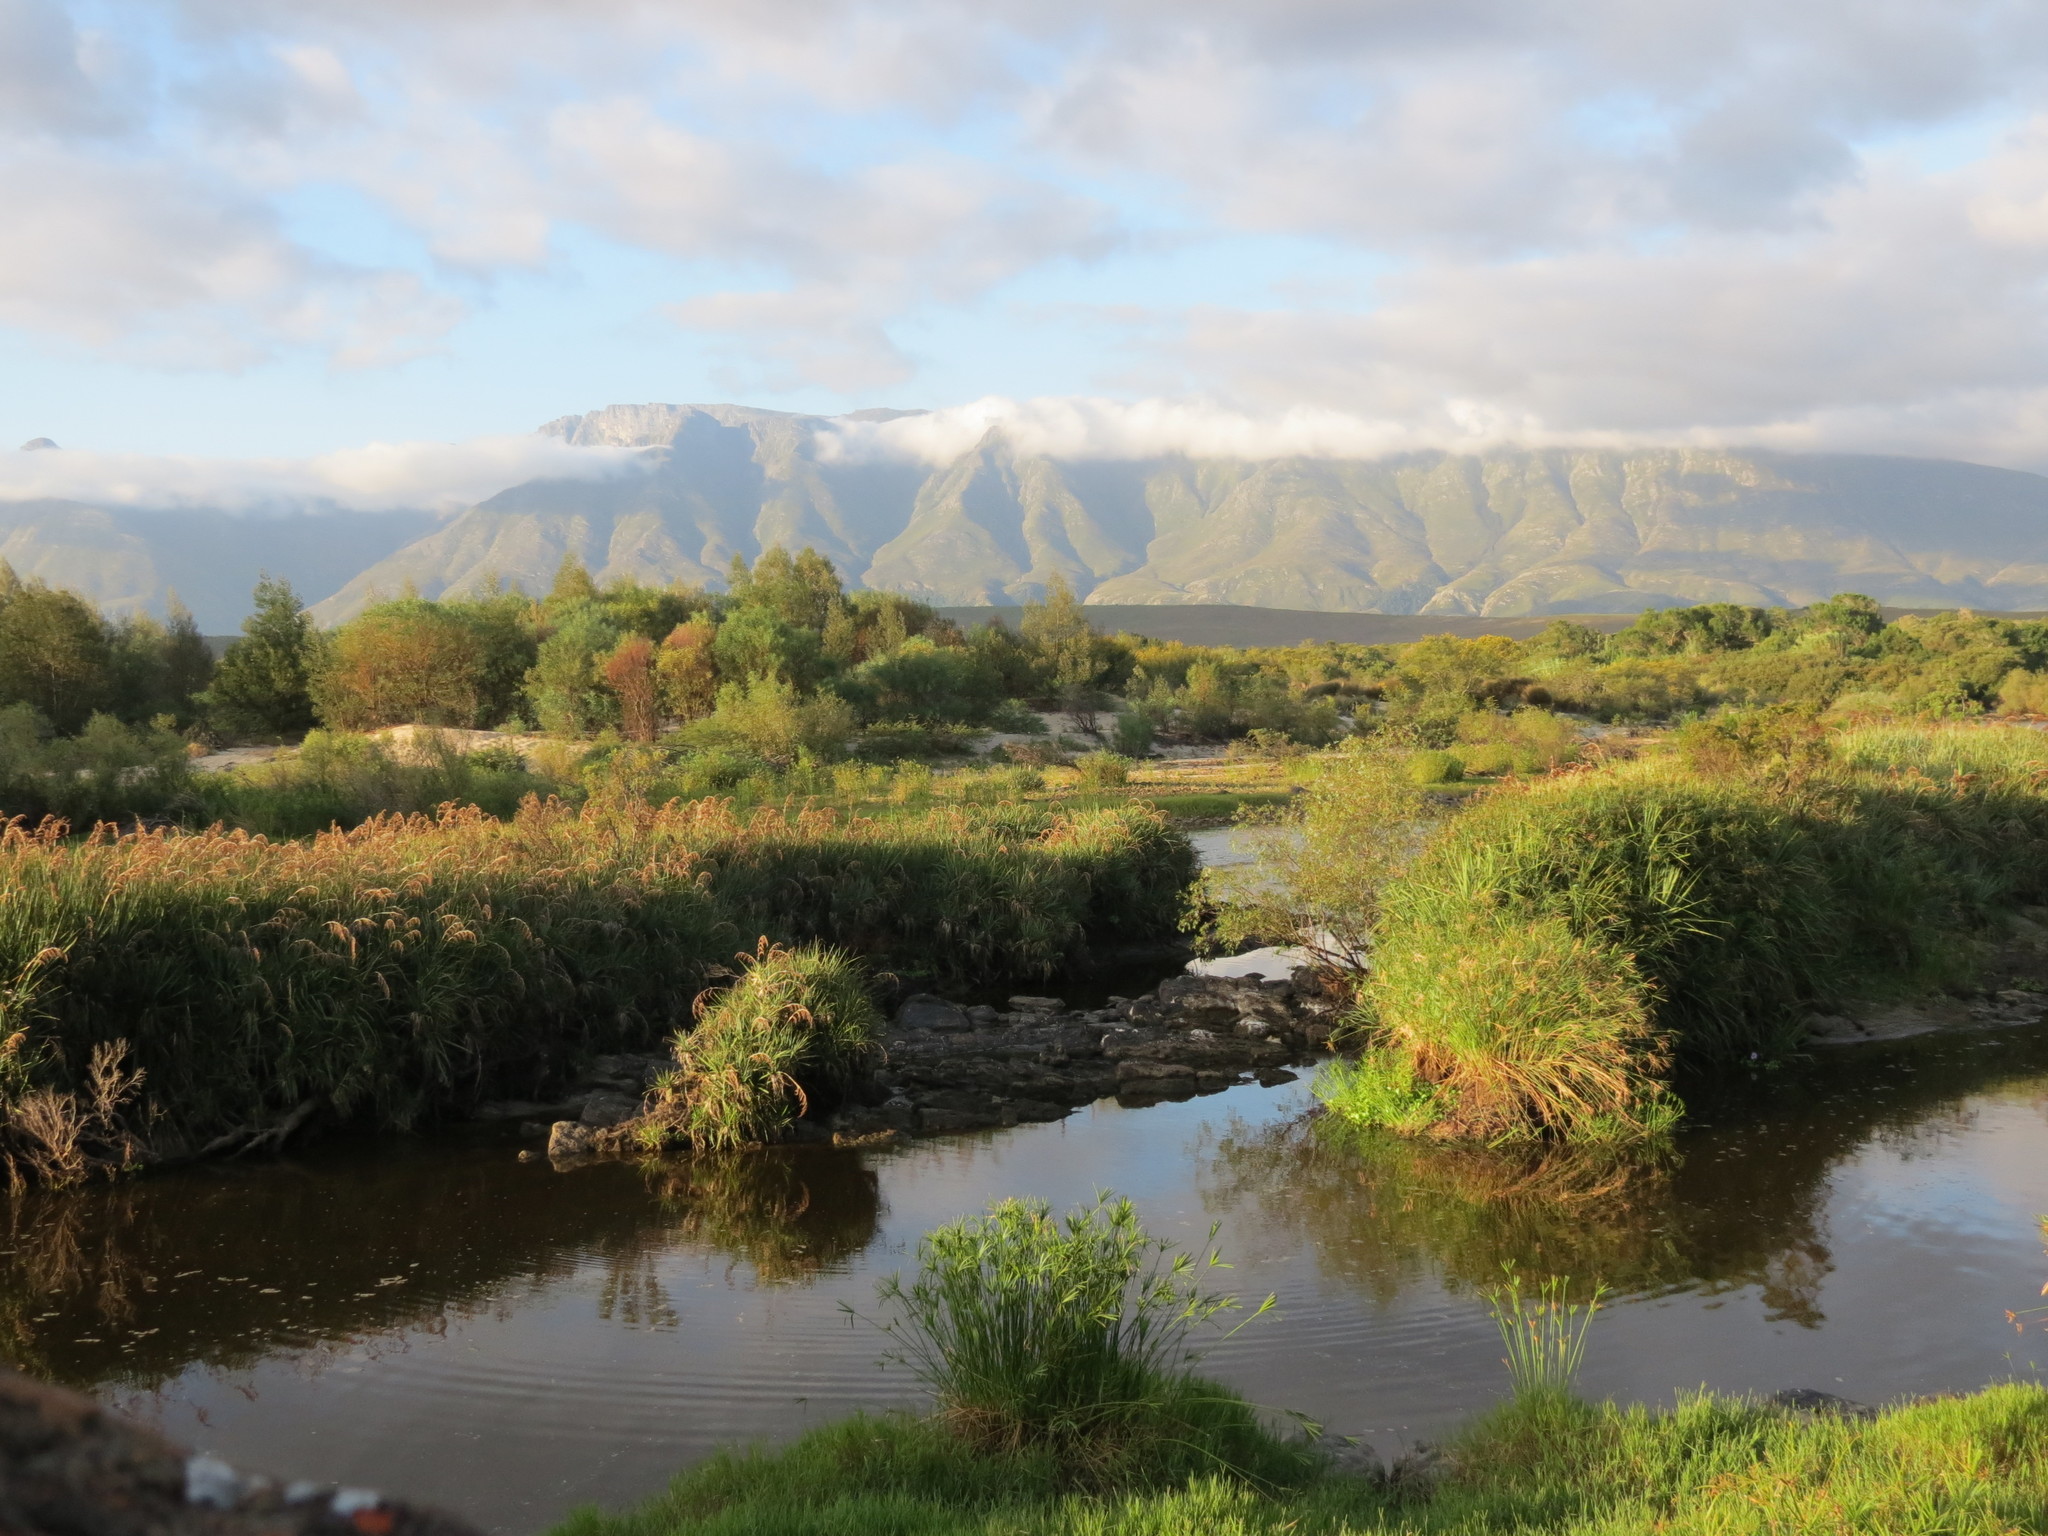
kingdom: Plantae
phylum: Tracheophyta
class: Liliopsida
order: Poales
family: Cyperaceae
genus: Cyperus
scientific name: Cyperus textilis
